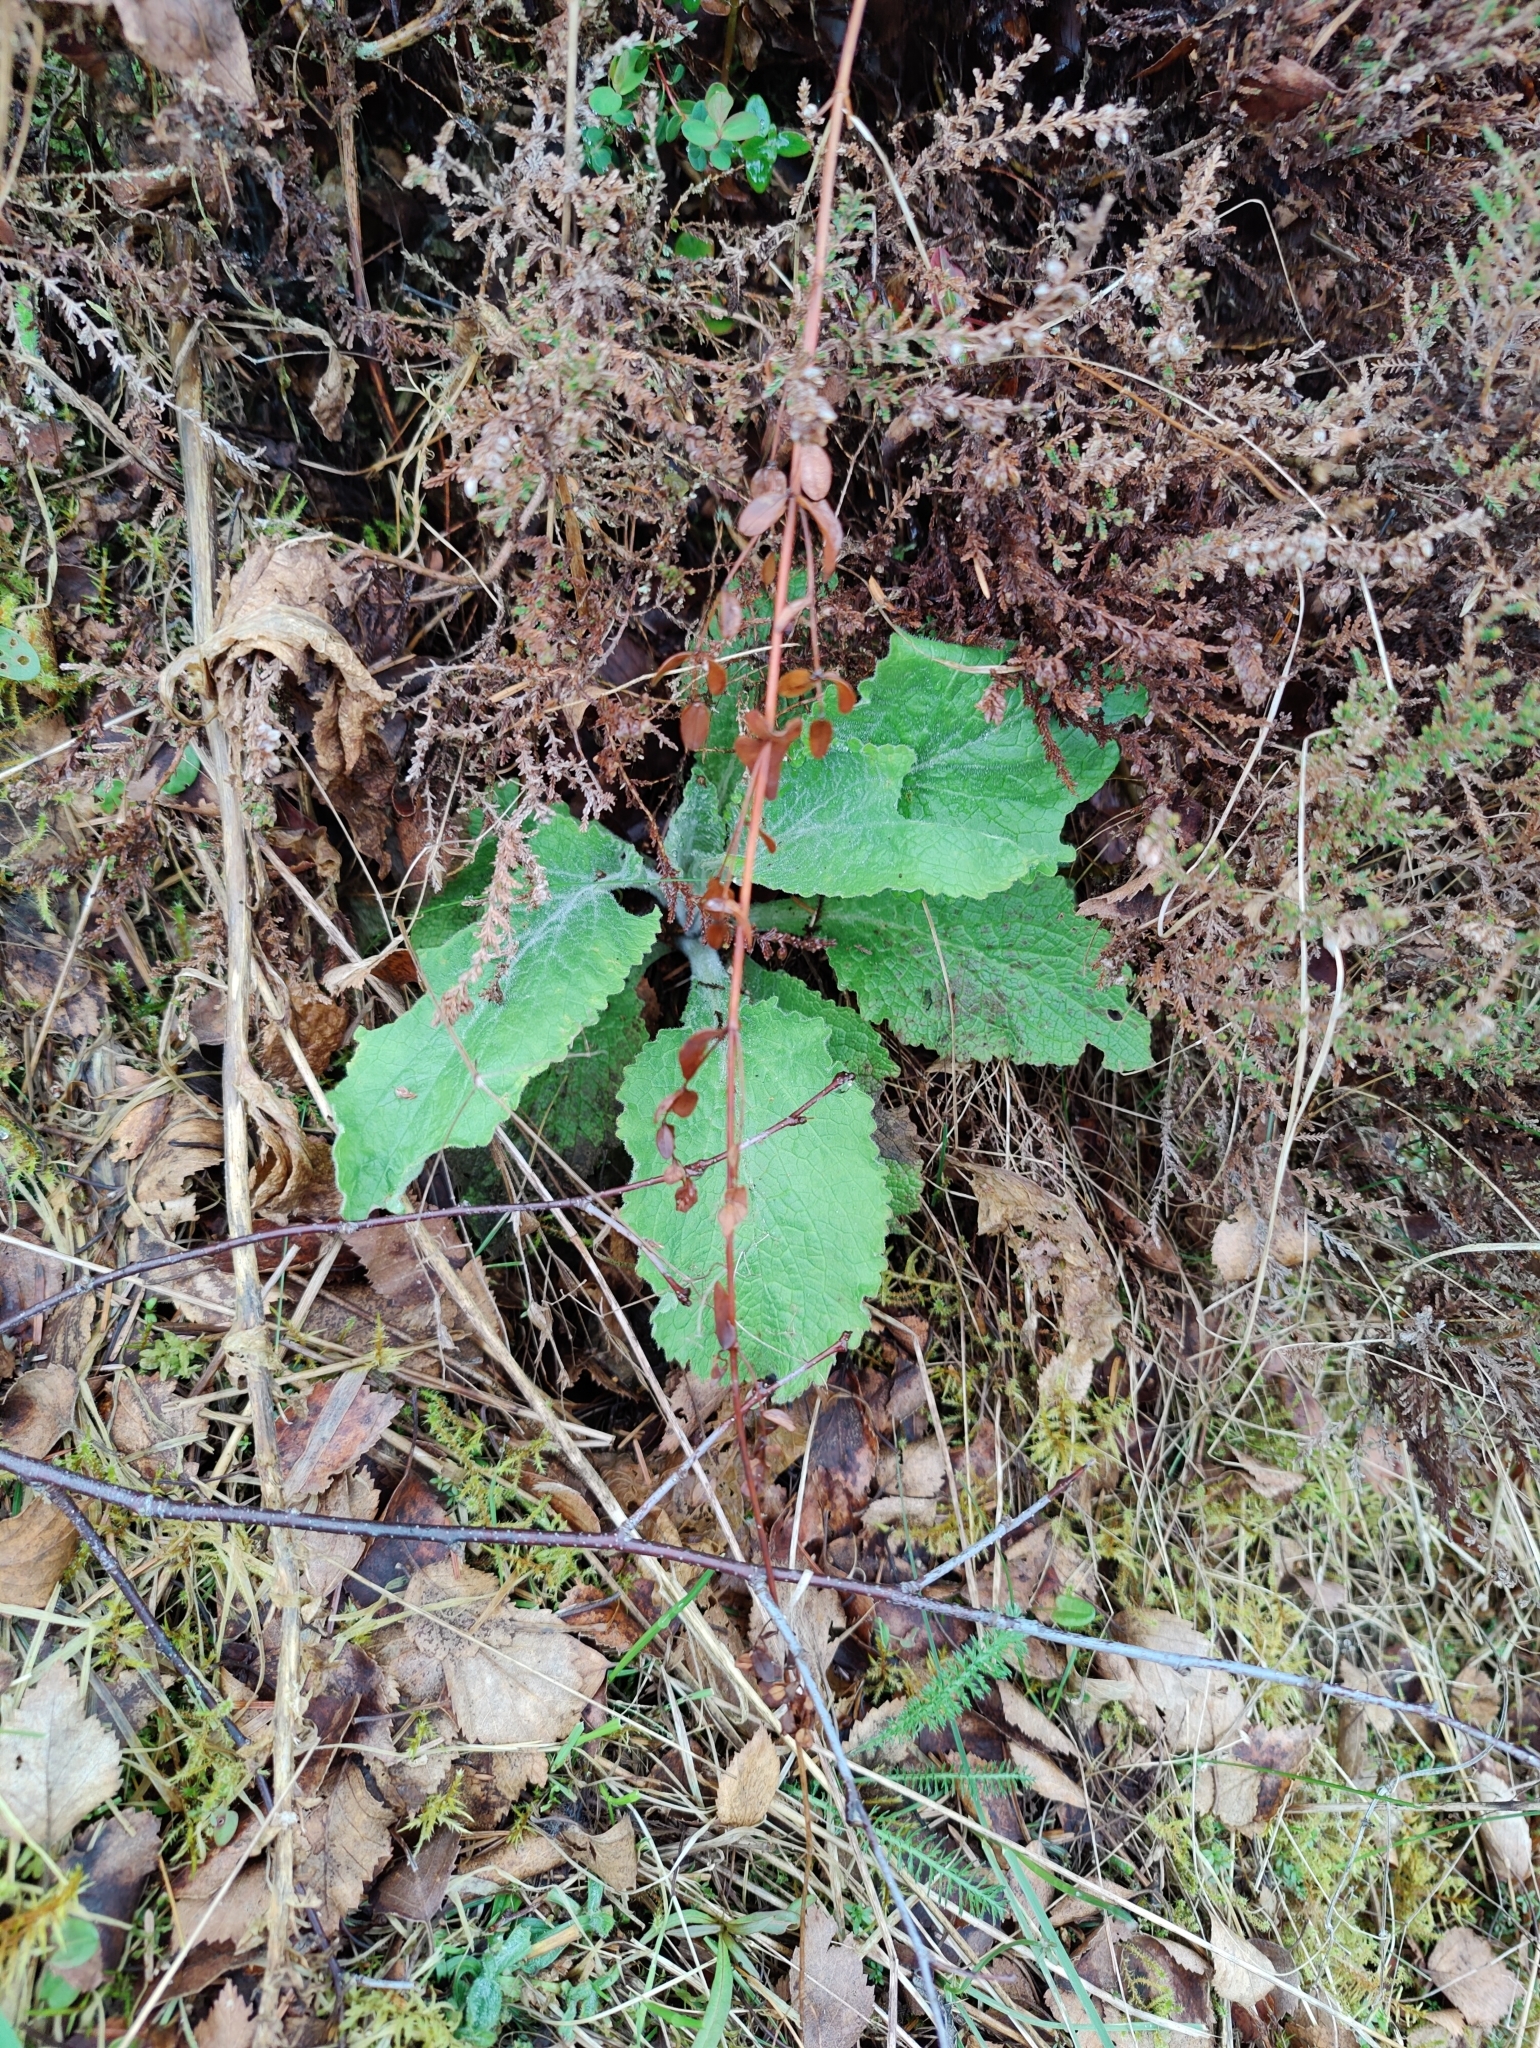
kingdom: Plantae
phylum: Tracheophyta
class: Magnoliopsida
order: Lamiales
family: Plantaginaceae
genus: Digitalis
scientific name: Digitalis purpurea
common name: Foxglove
